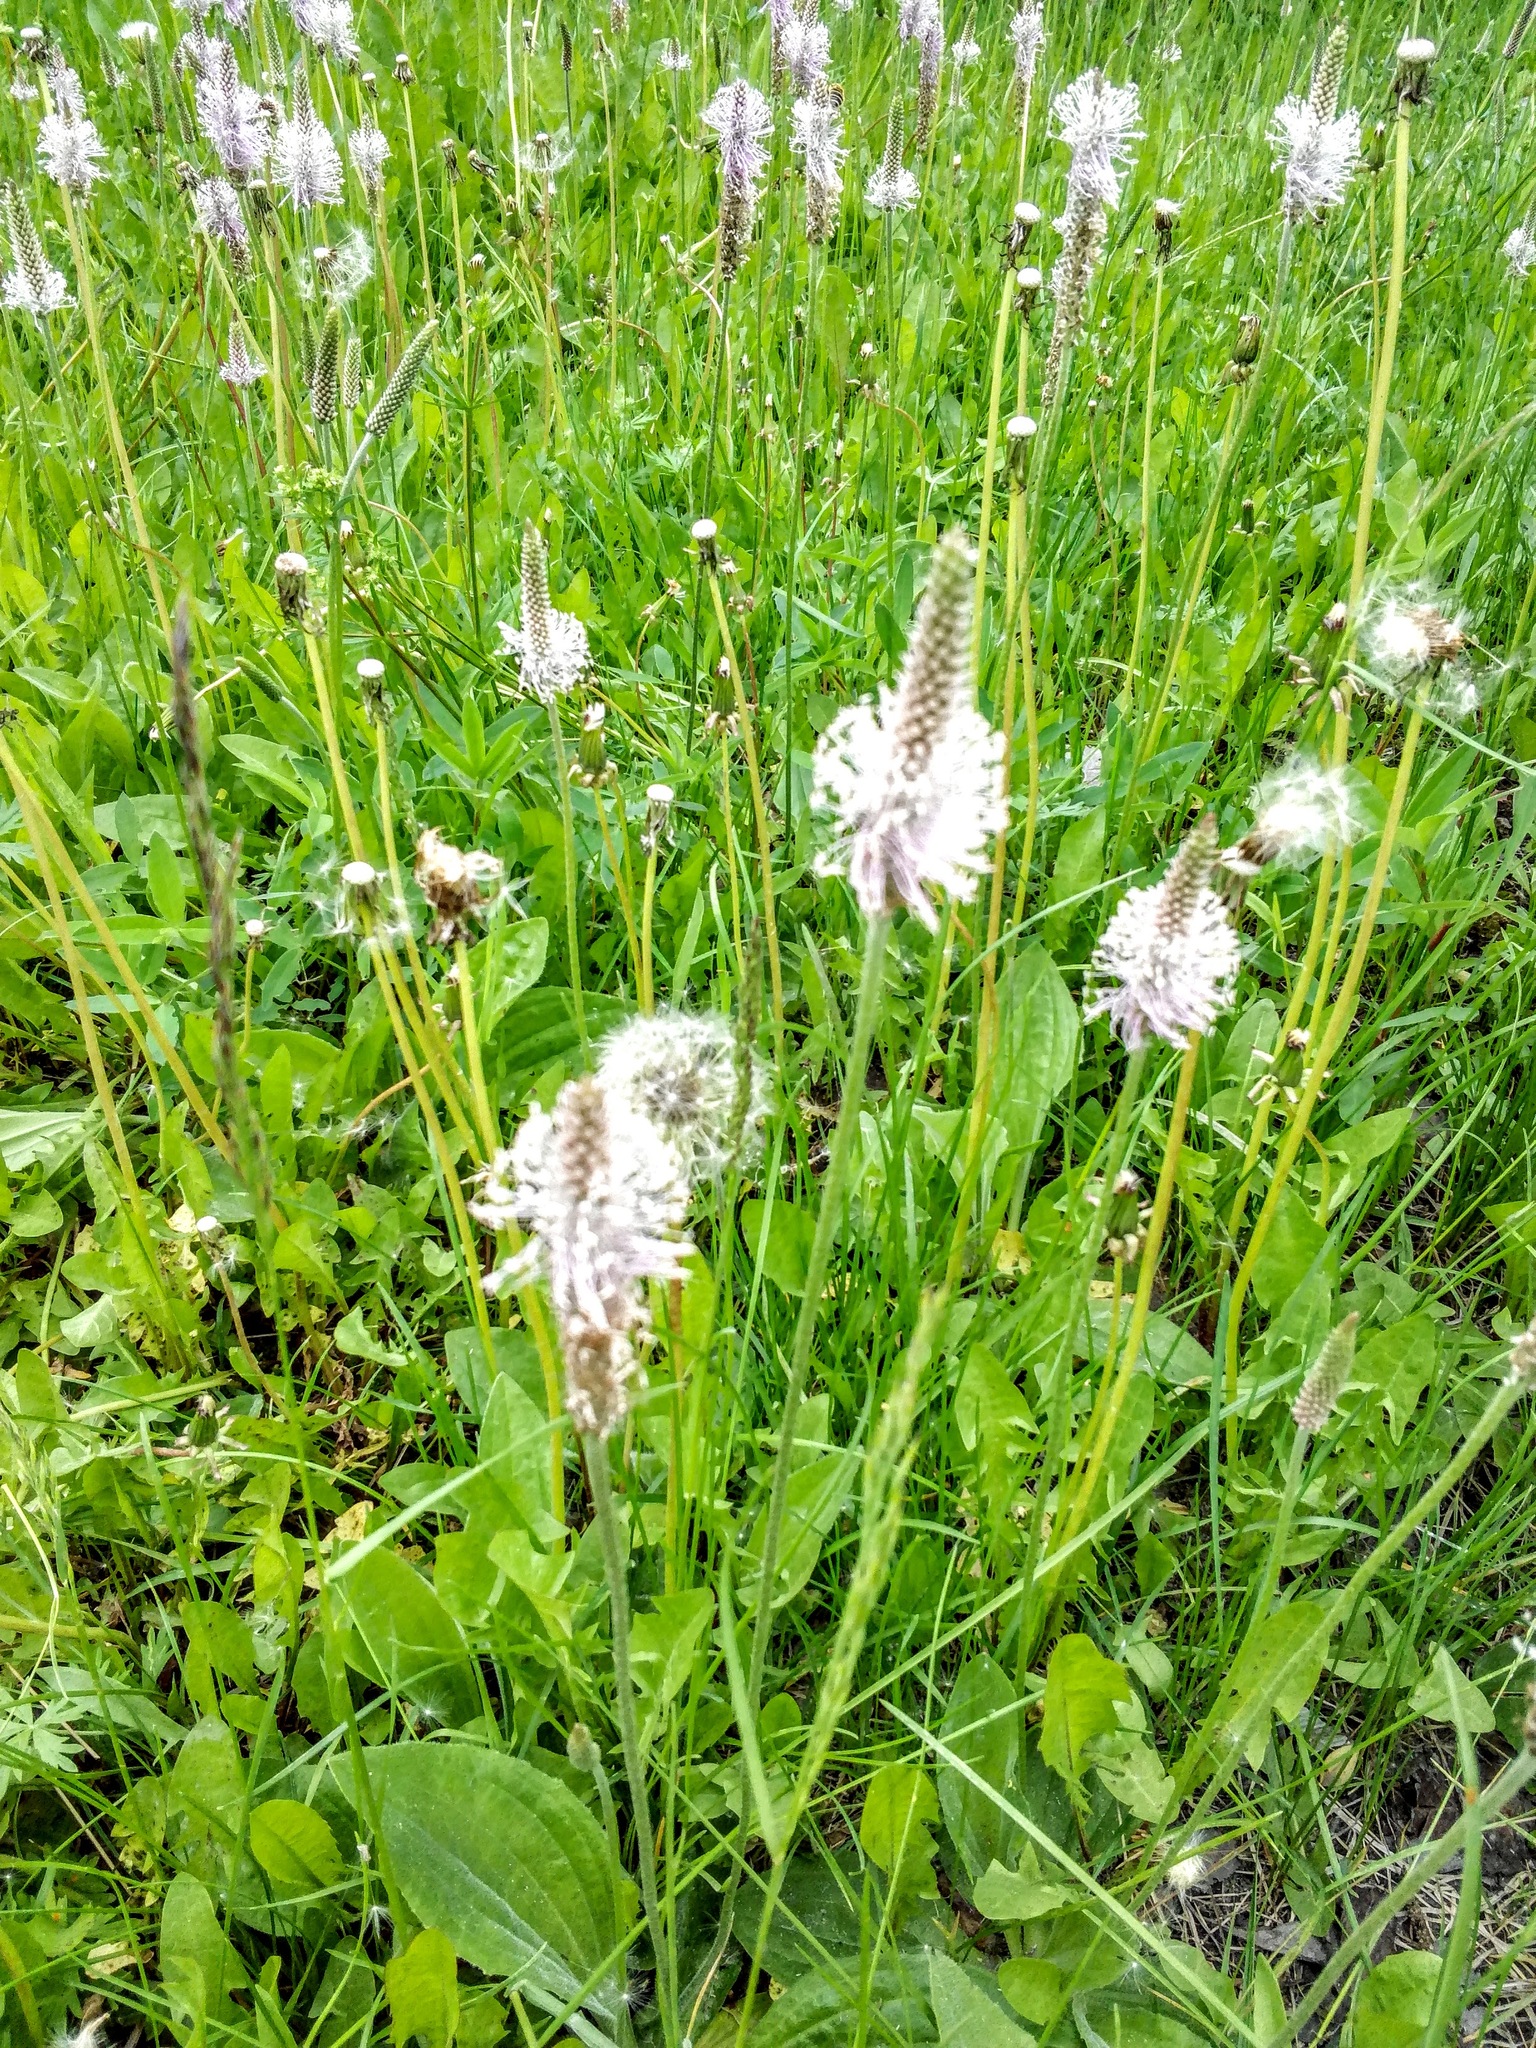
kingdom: Plantae
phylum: Tracheophyta
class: Magnoliopsida
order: Lamiales
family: Plantaginaceae
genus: Plantago
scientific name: Plantago media
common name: Hoary plantain
